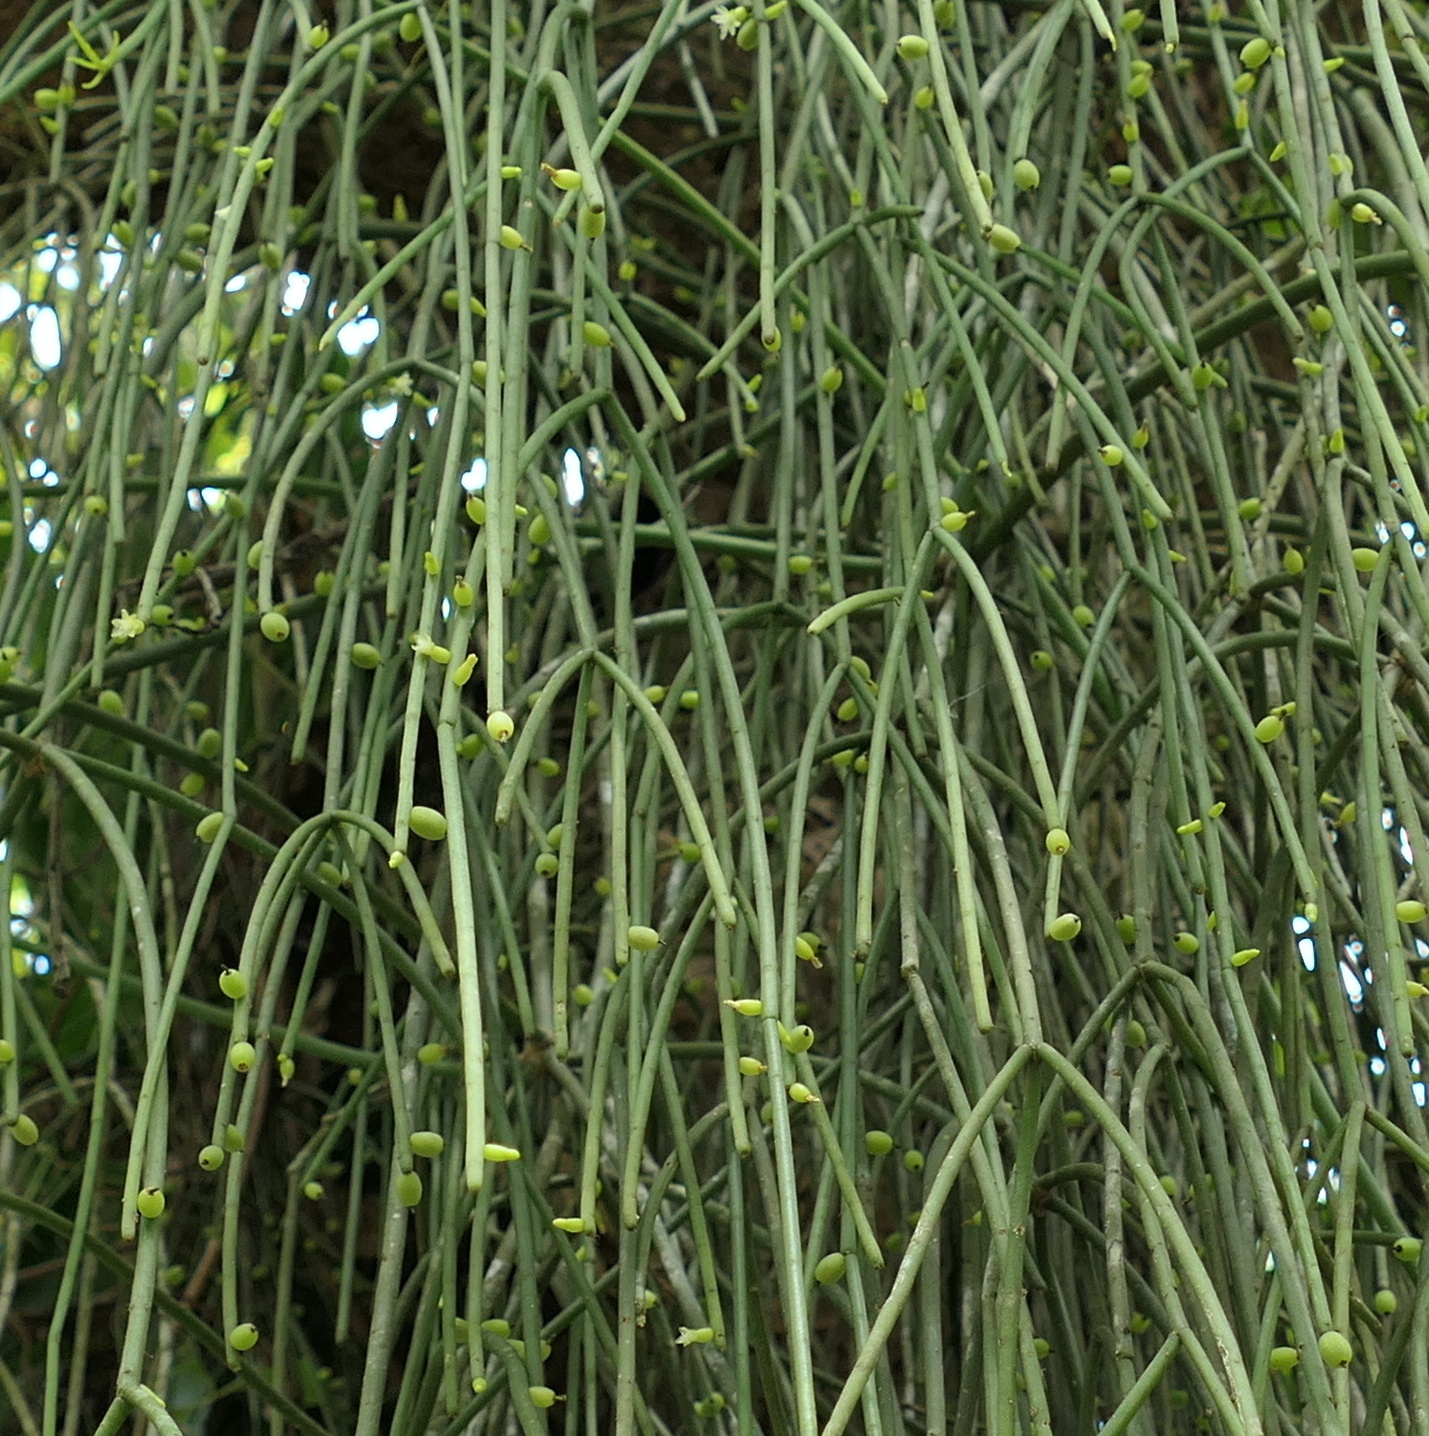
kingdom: Plantae
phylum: Tracheophyta
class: Magnoliopsida
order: Caryophyllales
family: Cactaceae
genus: Rhipsalis
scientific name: Rhipsalis baccifera
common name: Mistletoe cactus
